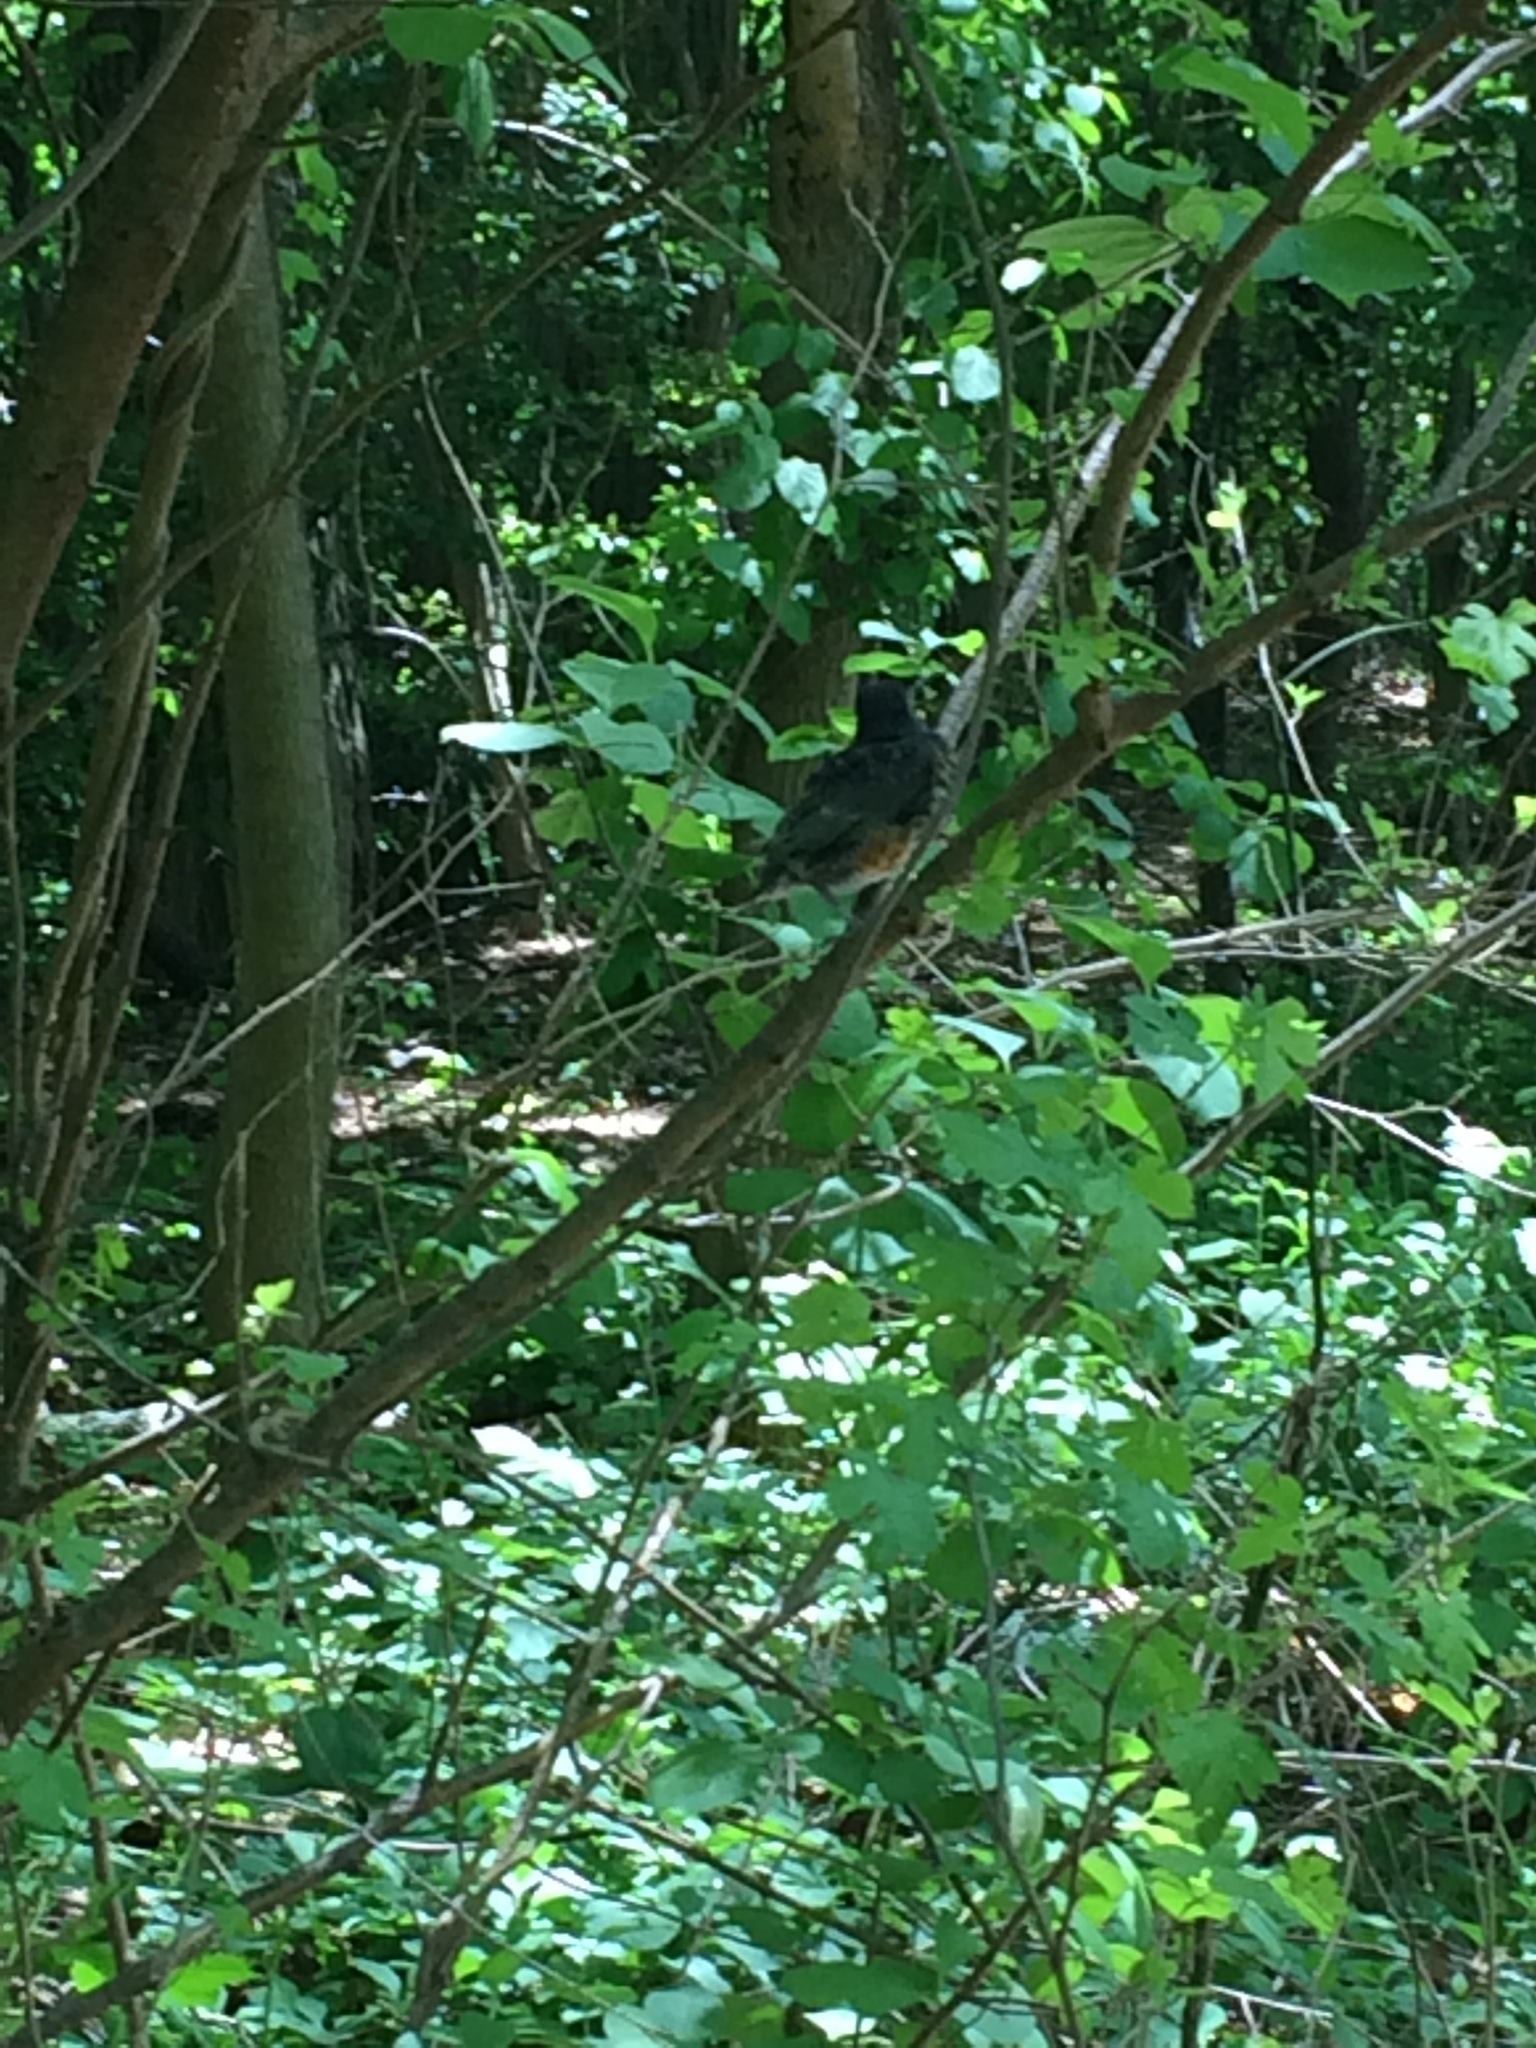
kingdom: Animalia
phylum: Chordata
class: Aves
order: Passeriformes
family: Turdidae
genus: Turdus
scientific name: Turdus migratorius
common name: American robin
